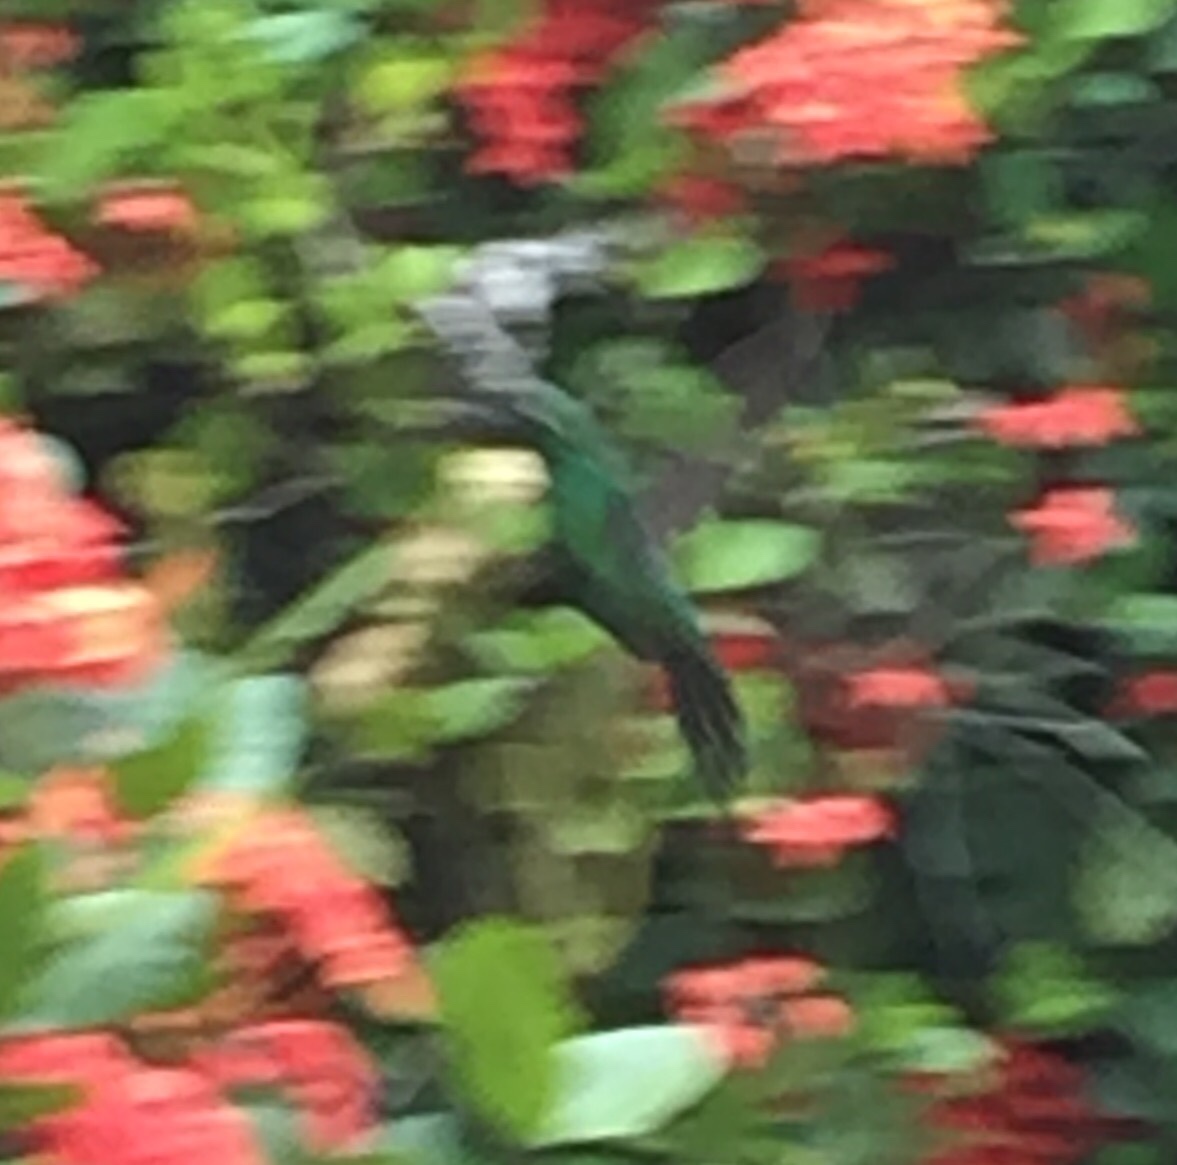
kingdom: Animalia
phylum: Chordata
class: Aves
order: Apodiformes
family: Trochilidae
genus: Riccordia
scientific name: Riccordia ricordii
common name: Cuban emerald
